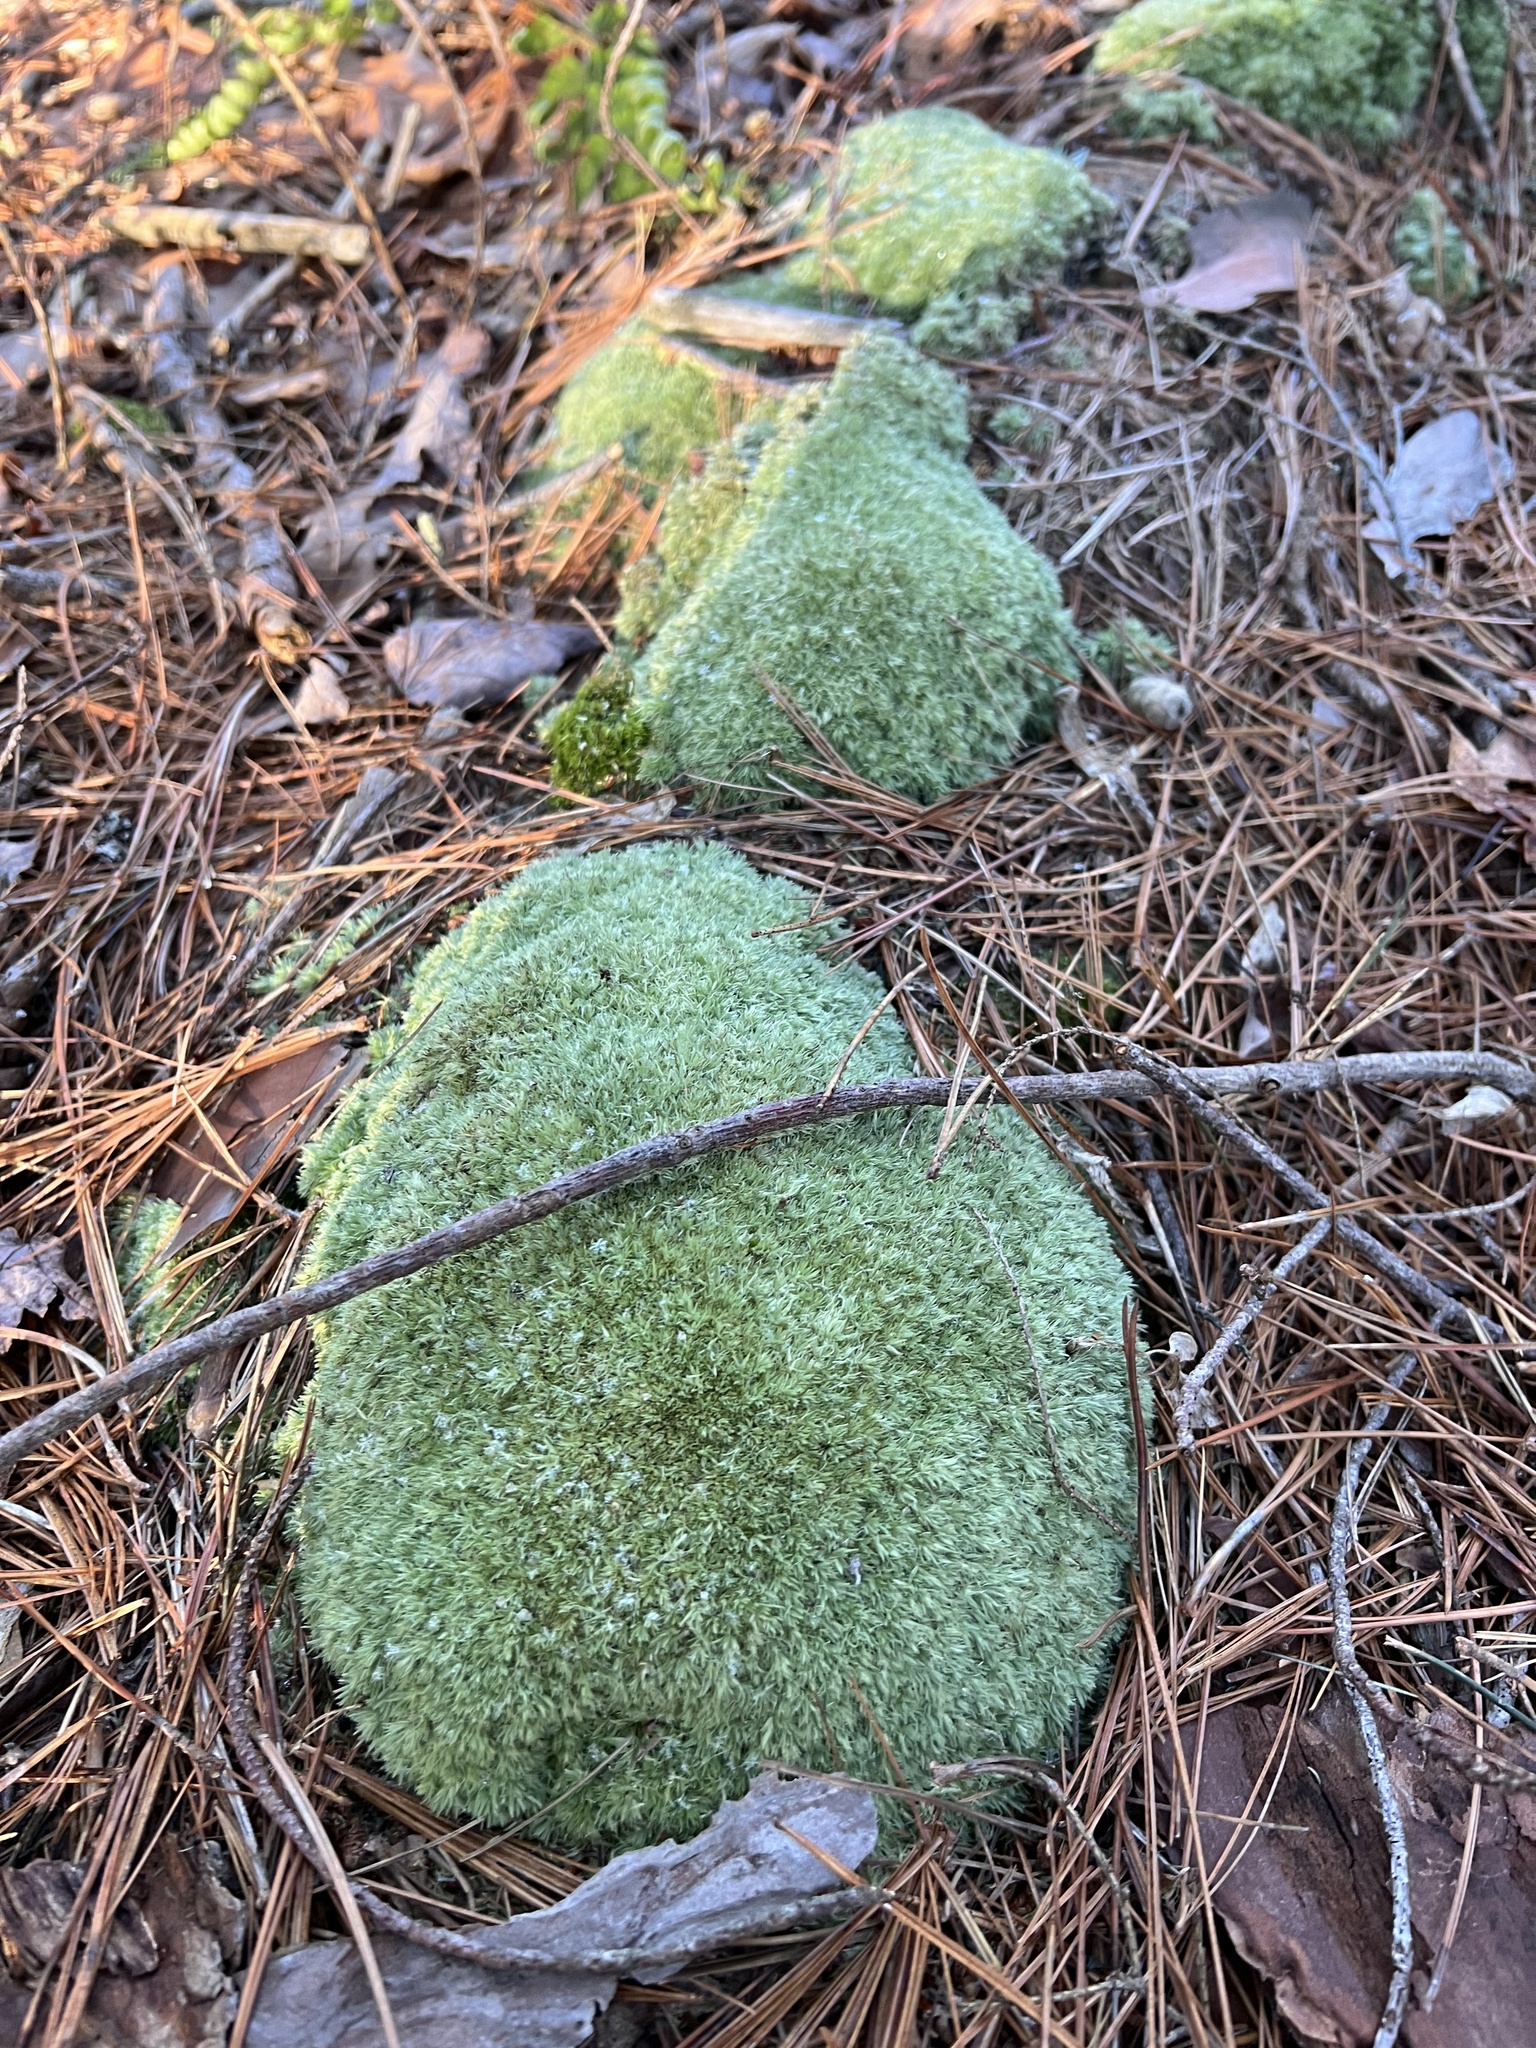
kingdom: Plantae
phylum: Bryophyta
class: Bryopsida
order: Dicranales
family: Leucobryaceae
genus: Leucobryum
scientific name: Leucobryum glaucum
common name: Large white-moss
